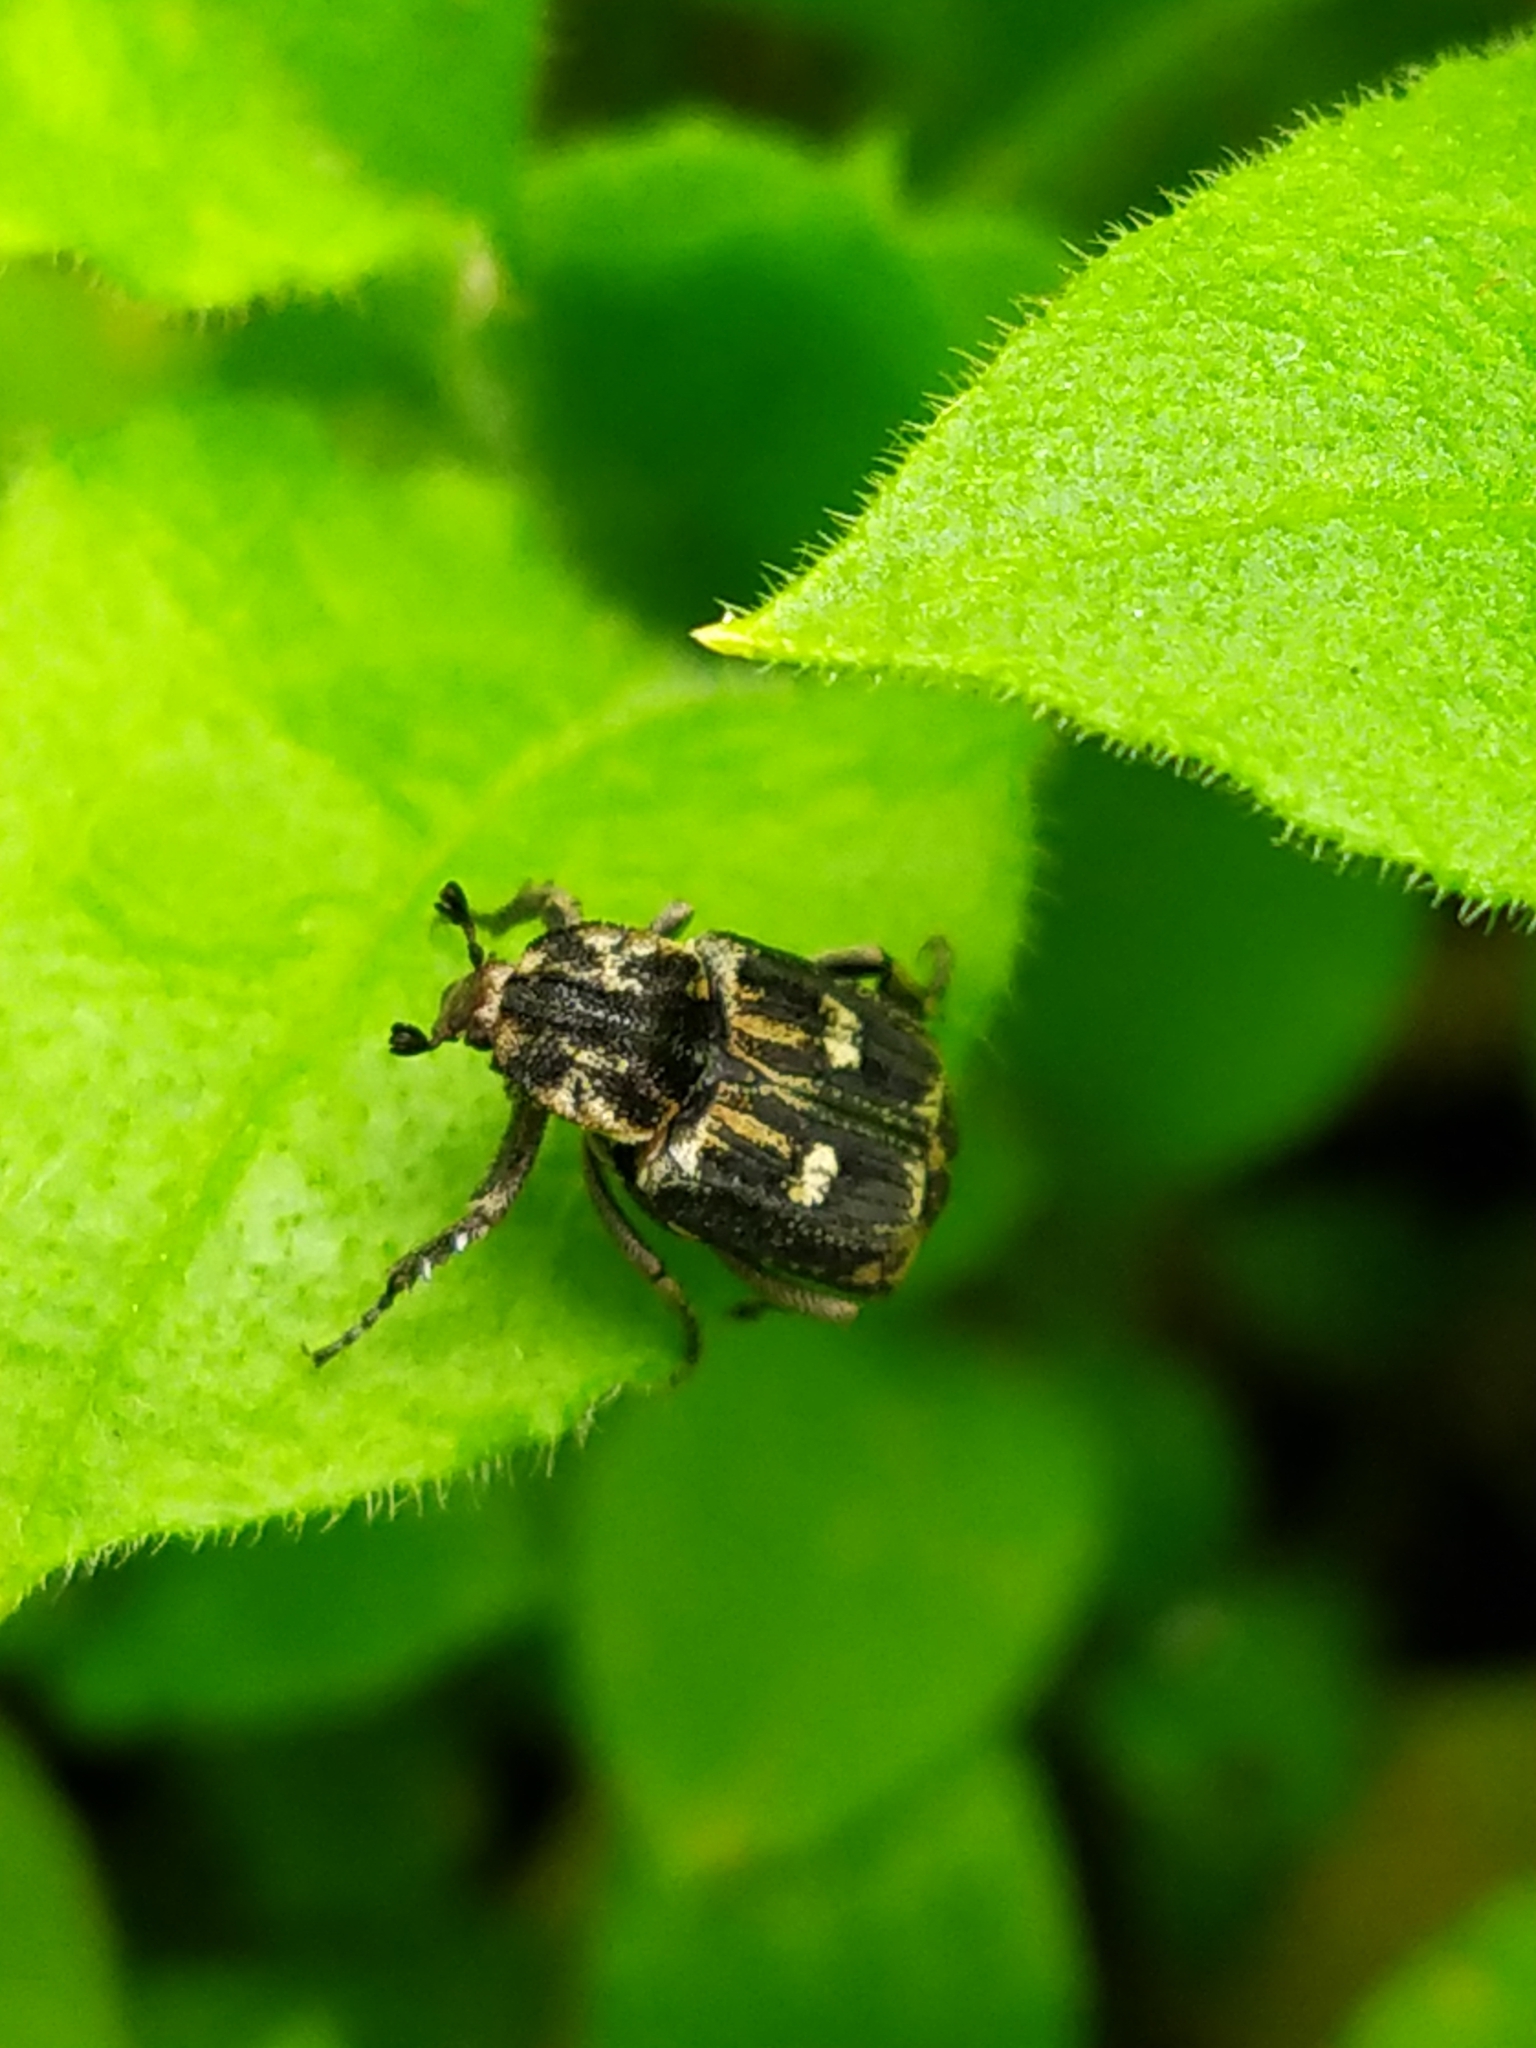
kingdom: Animalia
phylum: Arthropoda
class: Insecta
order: Coleoptera
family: Scarabaeidae
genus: Valgus
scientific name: Valgus hemipterus
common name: Bug flower chafer
